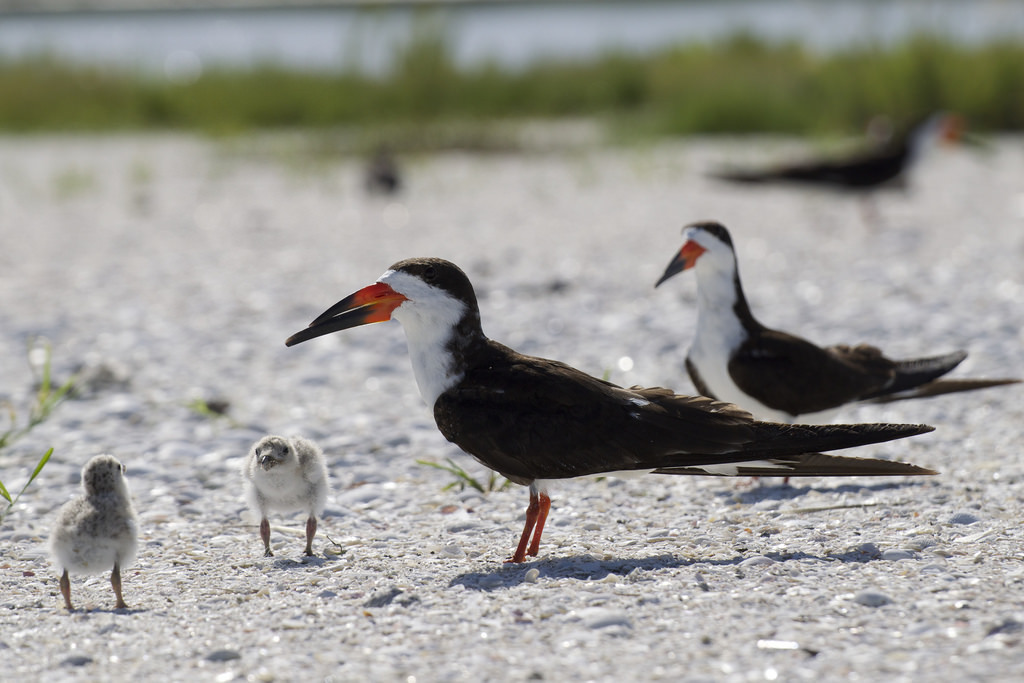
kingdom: Animalia
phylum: Chordata
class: Aves
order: Charadriiformes
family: Laridae
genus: Rynchops
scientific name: Rynchops niger
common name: Black skimmer
